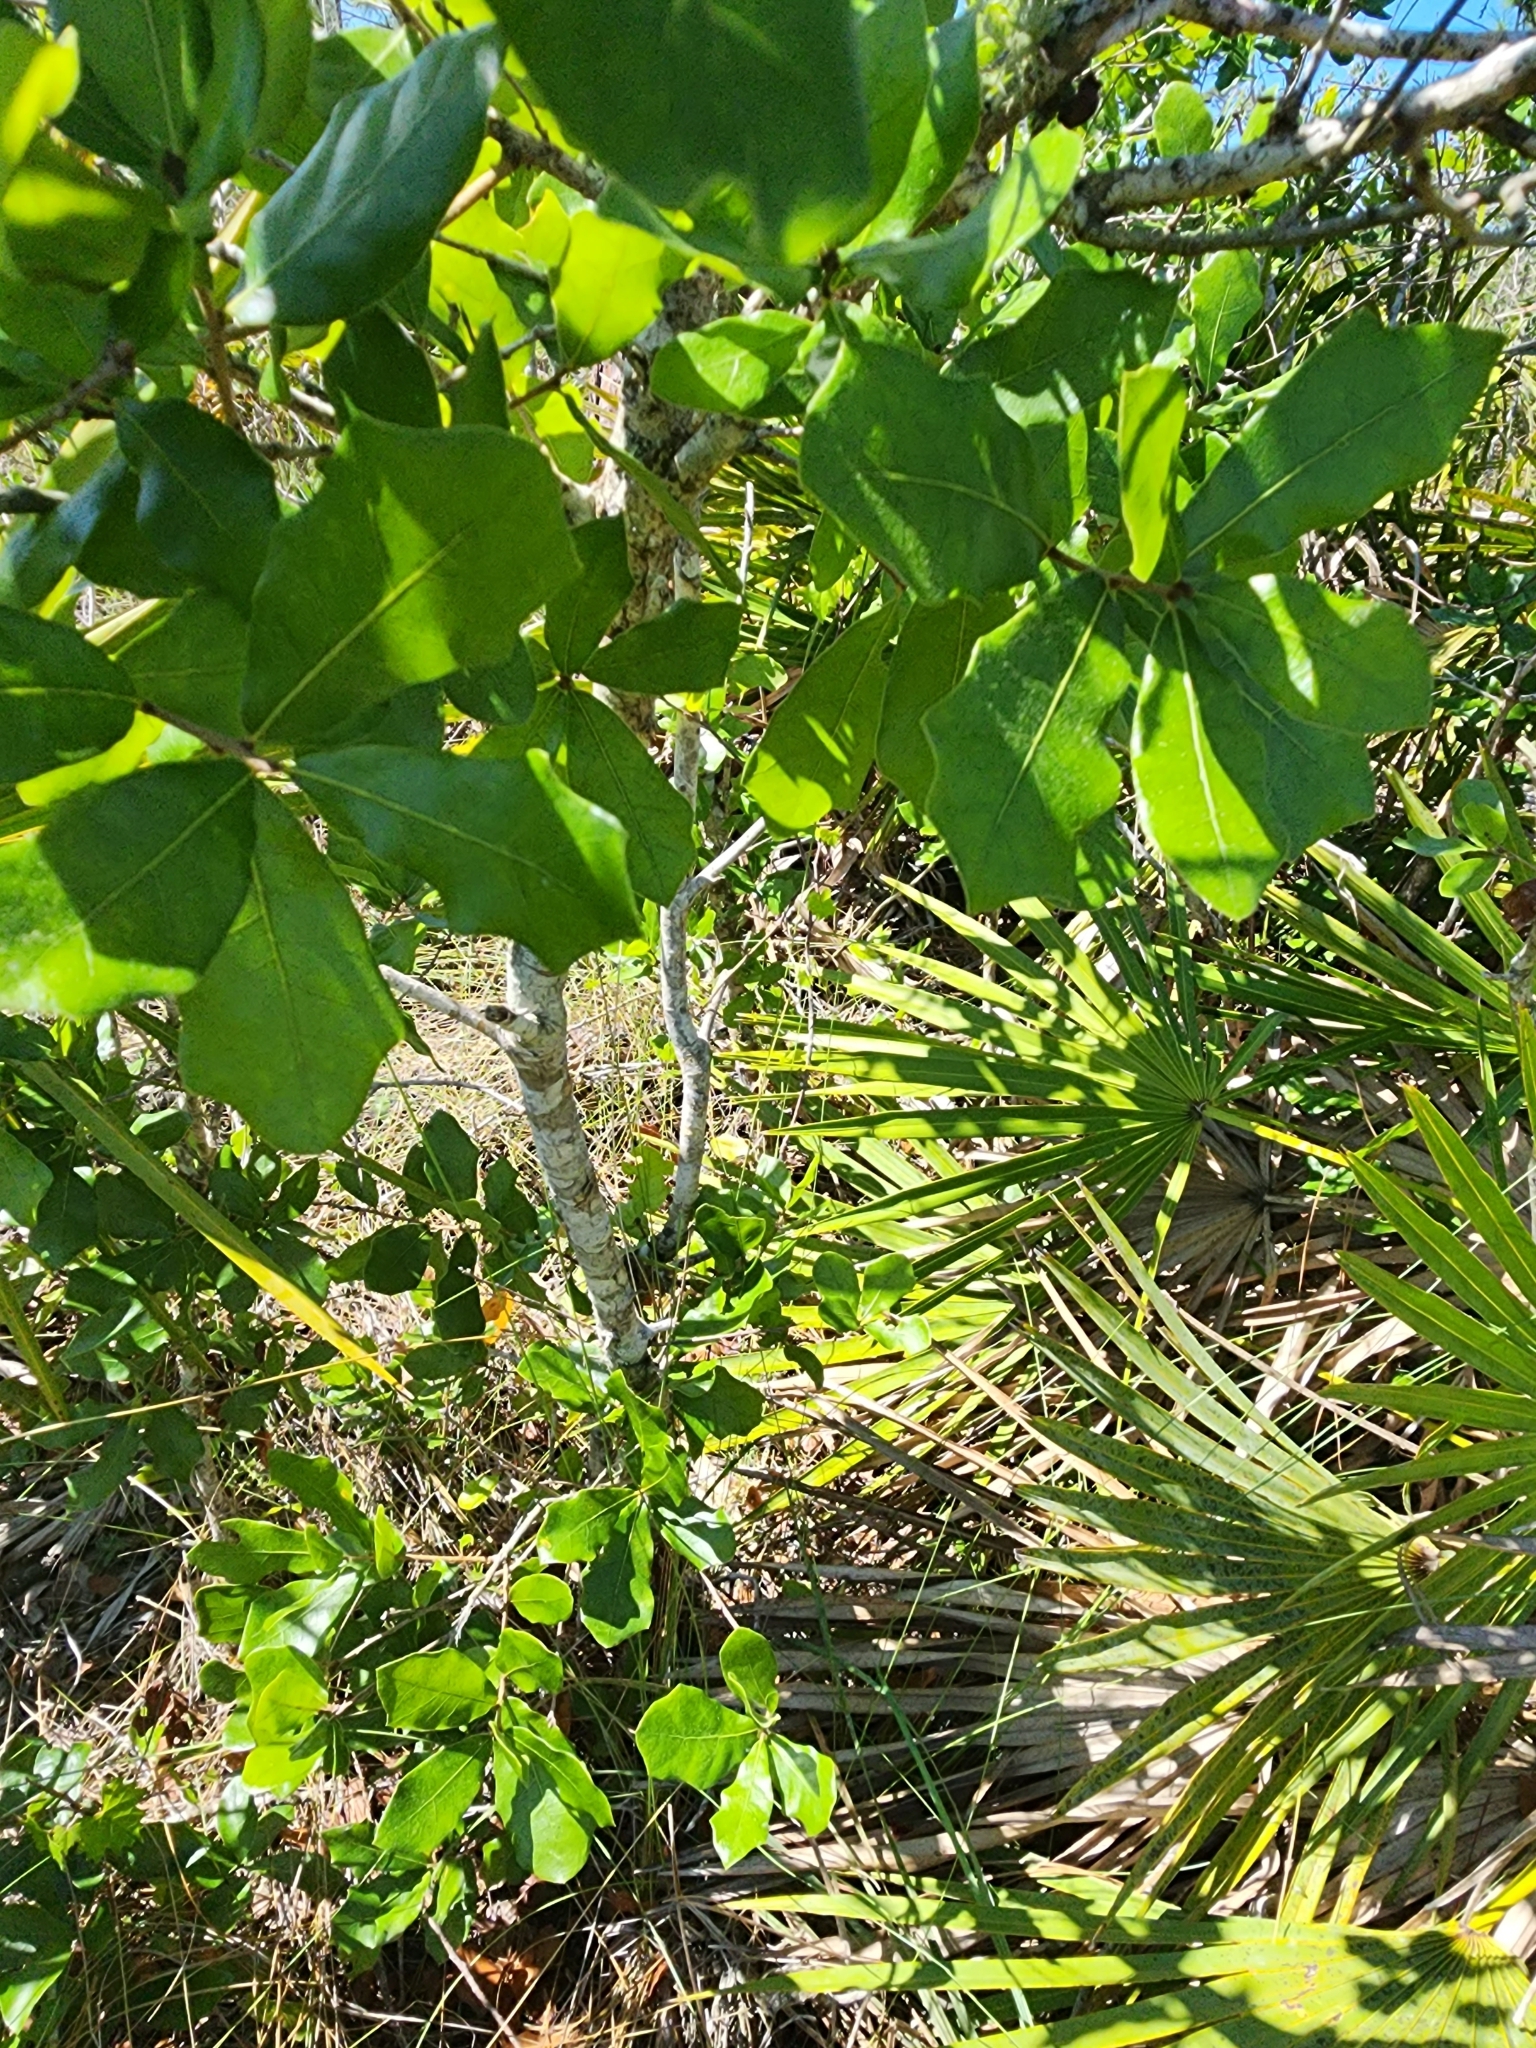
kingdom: Plantae
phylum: Tracheophyta
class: Magnoliopsida
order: Fagales
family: Fagaceae
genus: Quercus
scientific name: Quercus chapmanii
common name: Chapman oak
